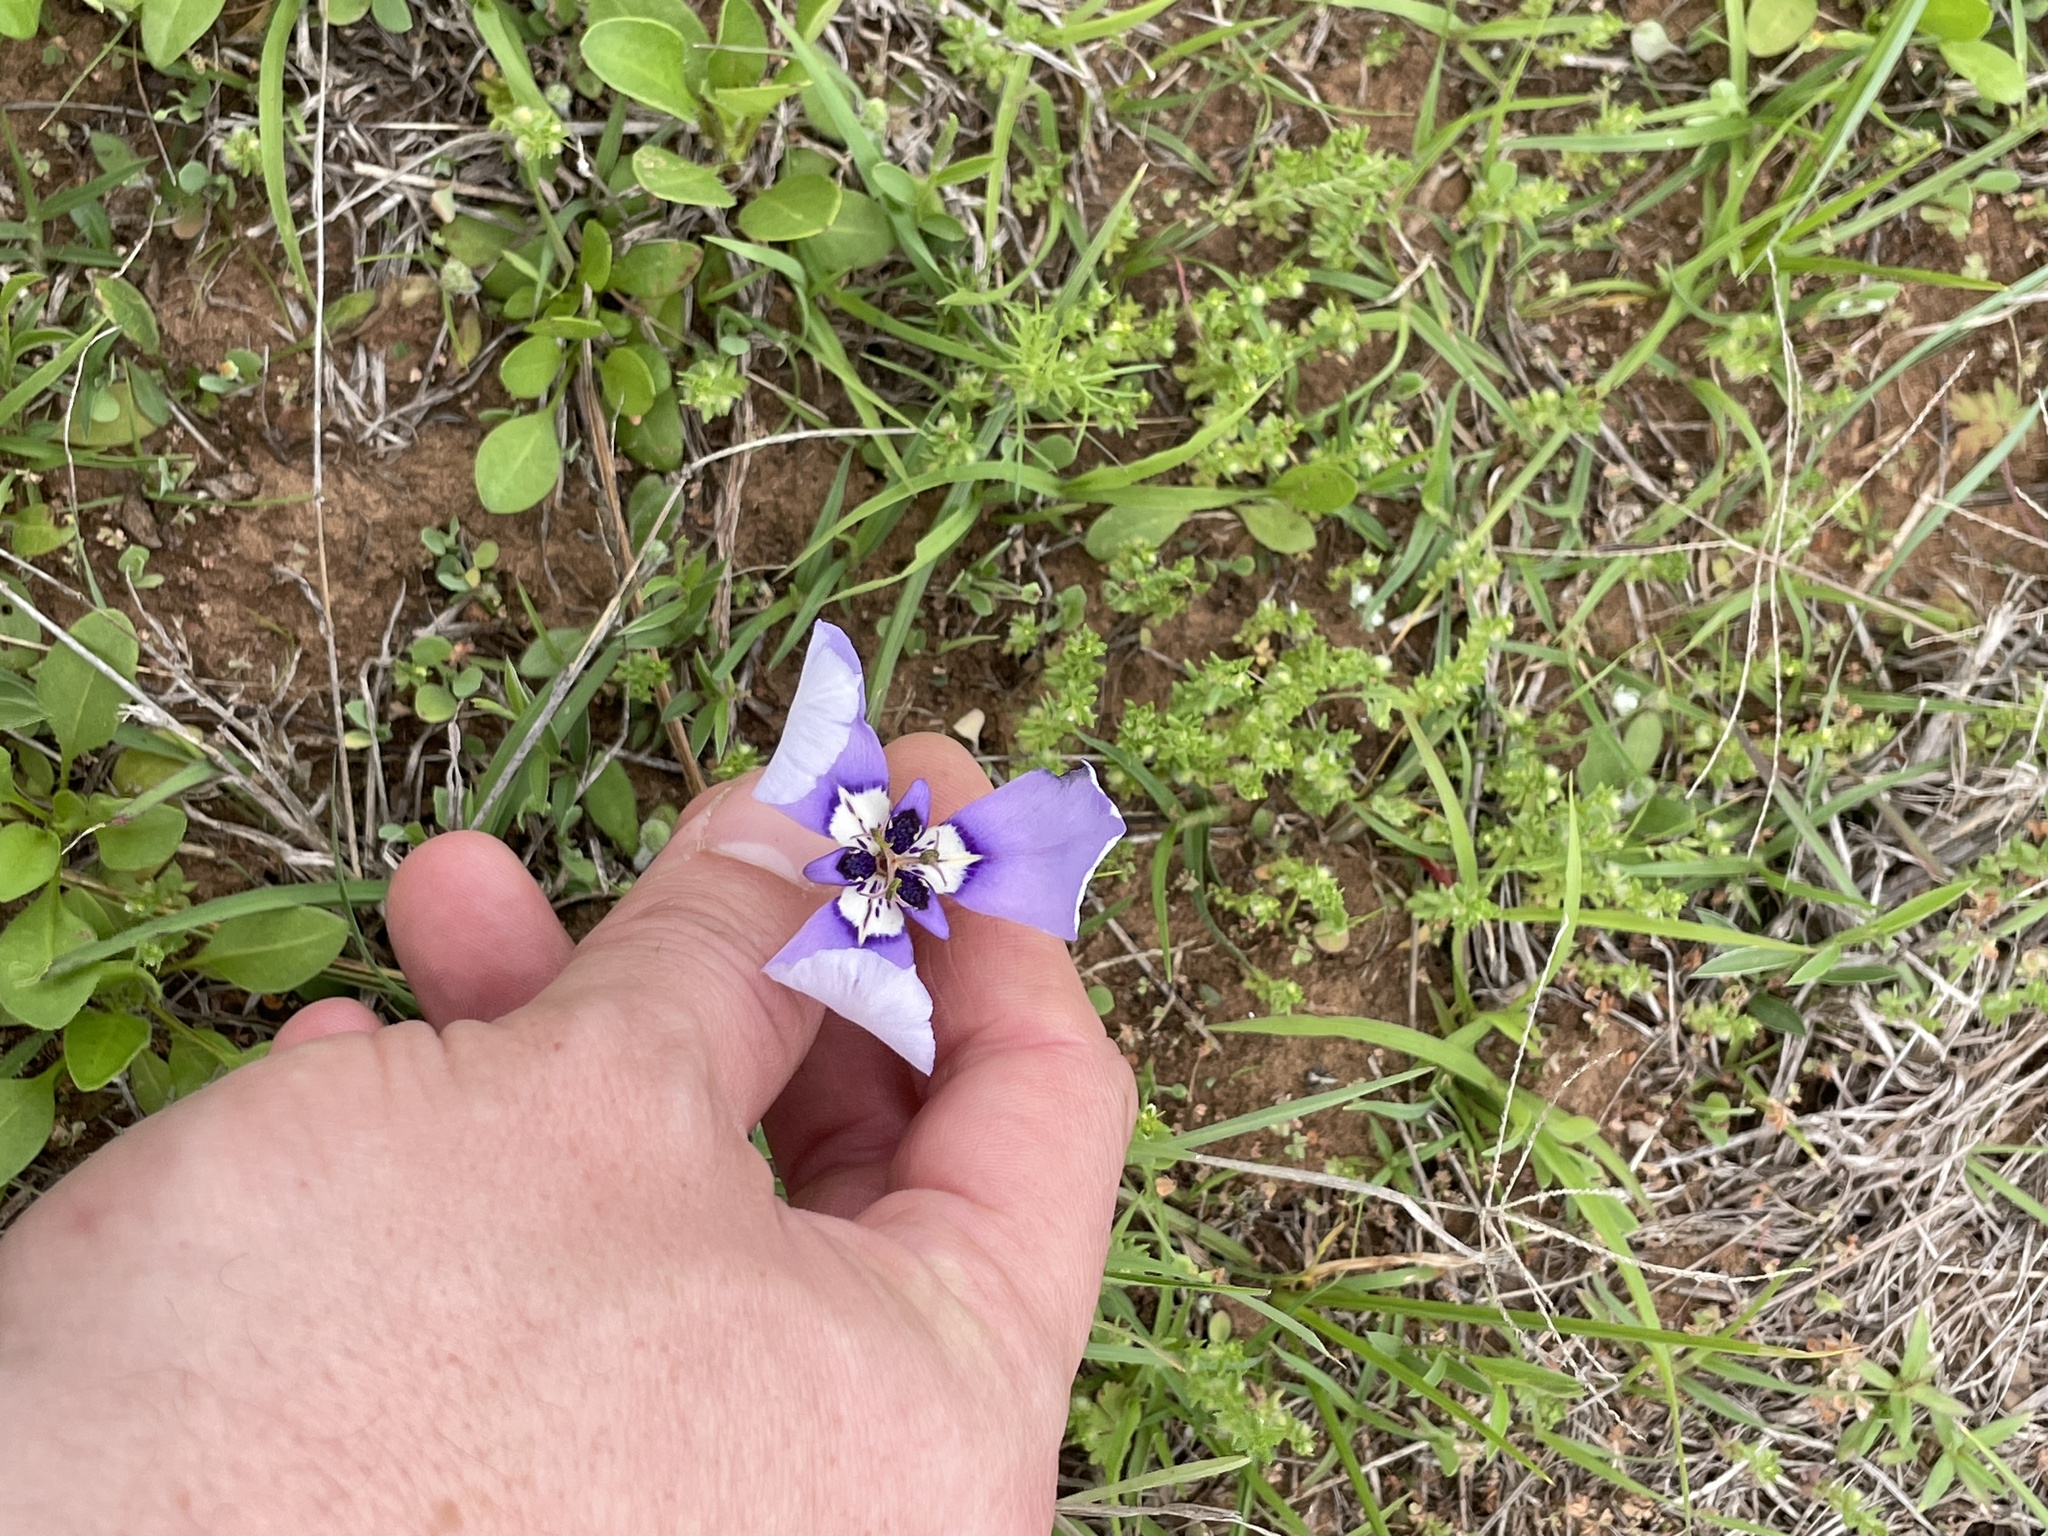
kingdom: Plantae
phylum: Tracheophyta
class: Liliopsida
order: Asparagales
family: Iridaceae
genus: Herbertia
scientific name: Herbertia lahue
